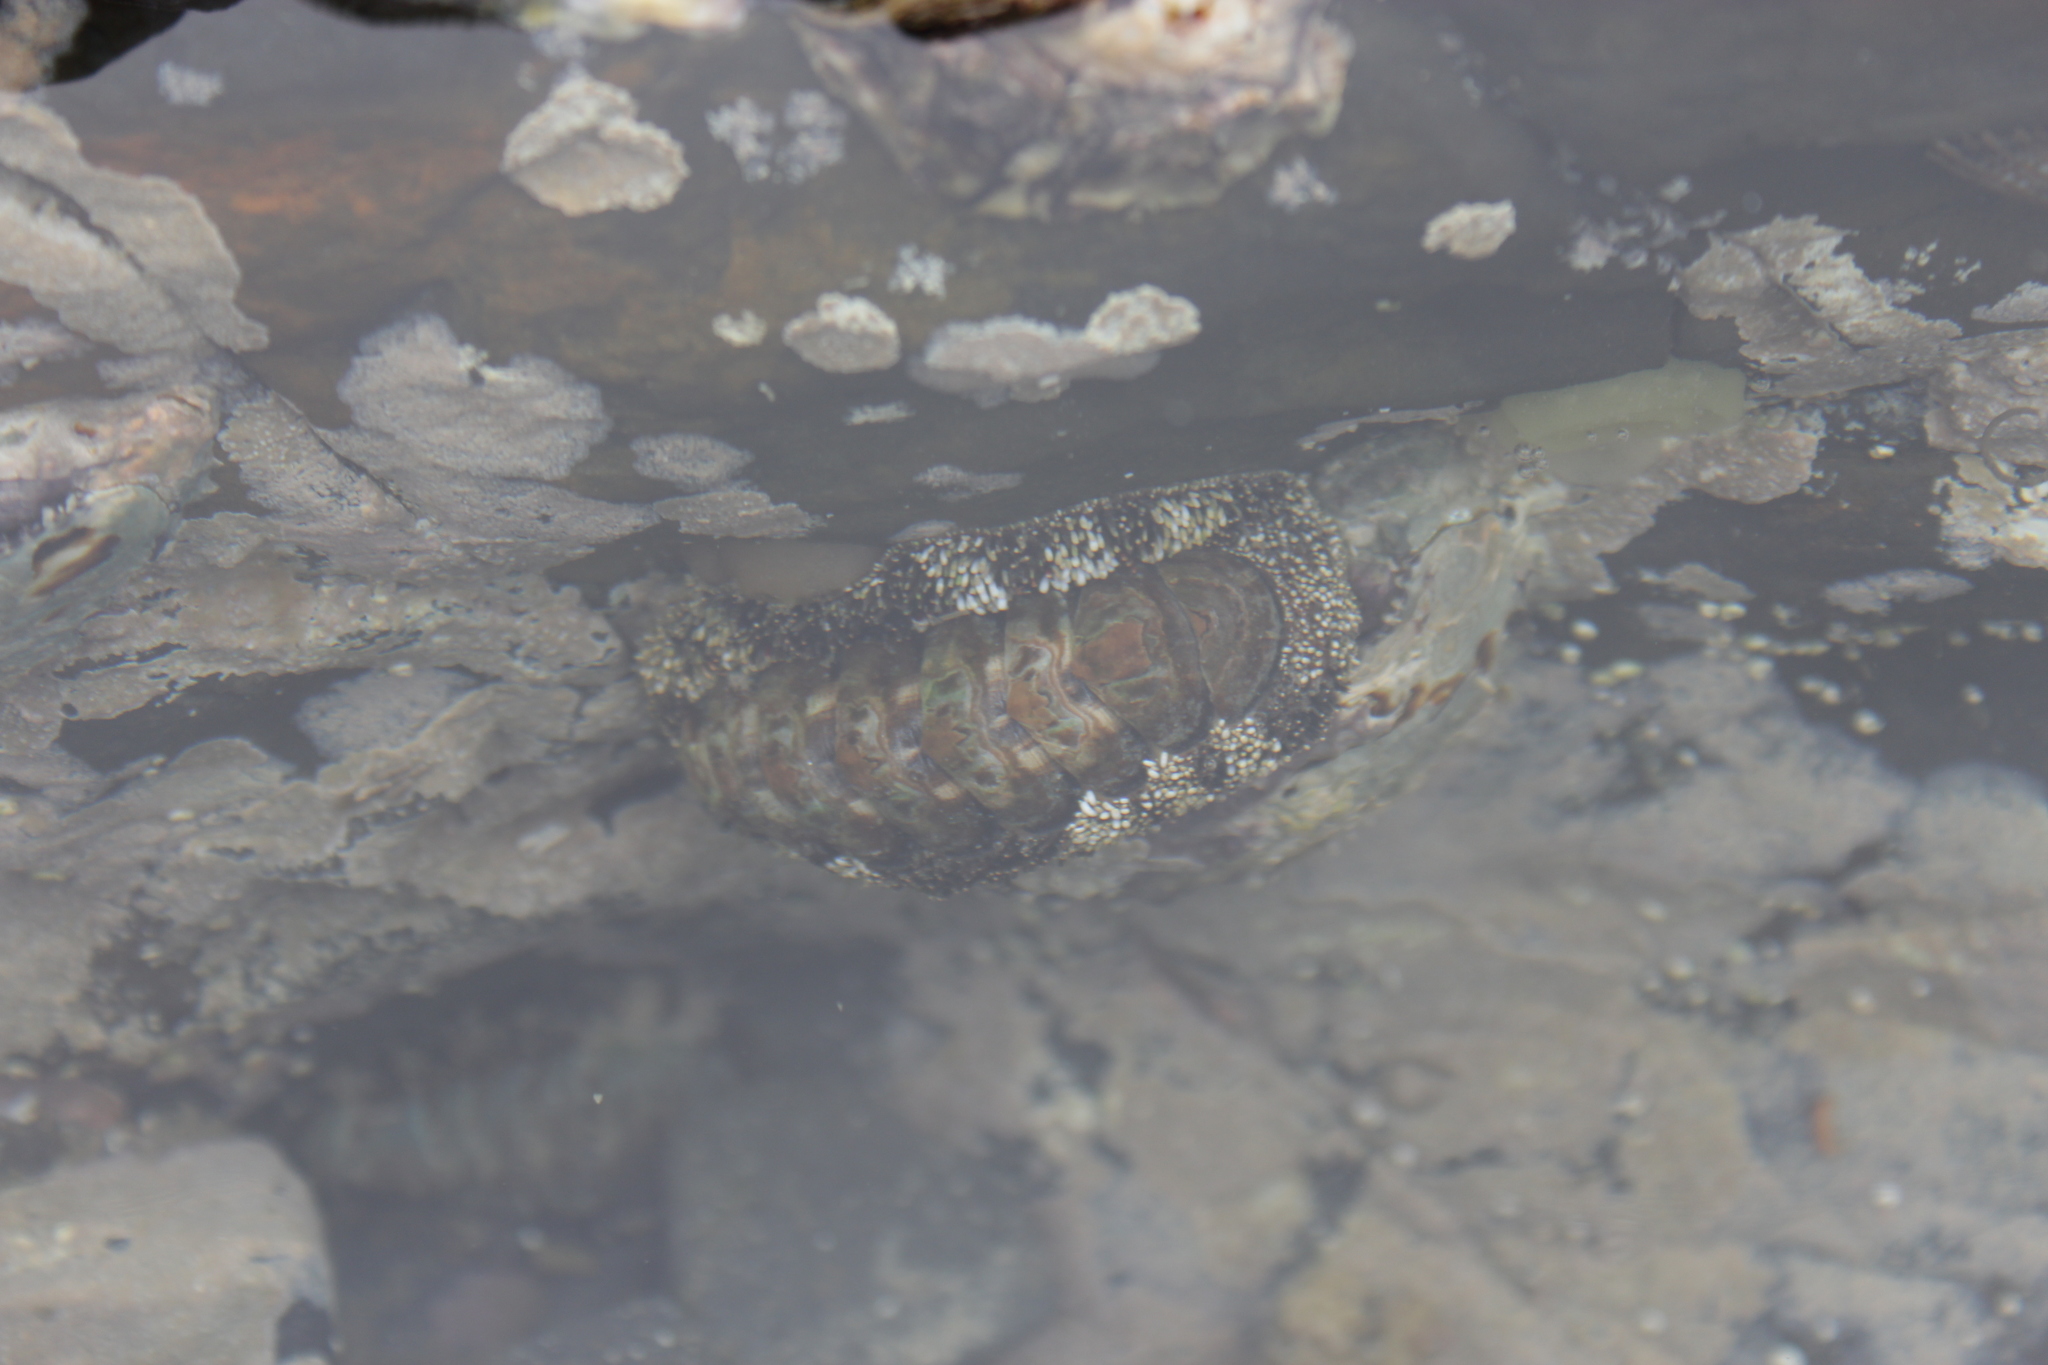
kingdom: Animalia
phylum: Mollusca
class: Polyplacophora
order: Chitonida
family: Chitonidae
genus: Liolophura
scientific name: Liolophura japonica
